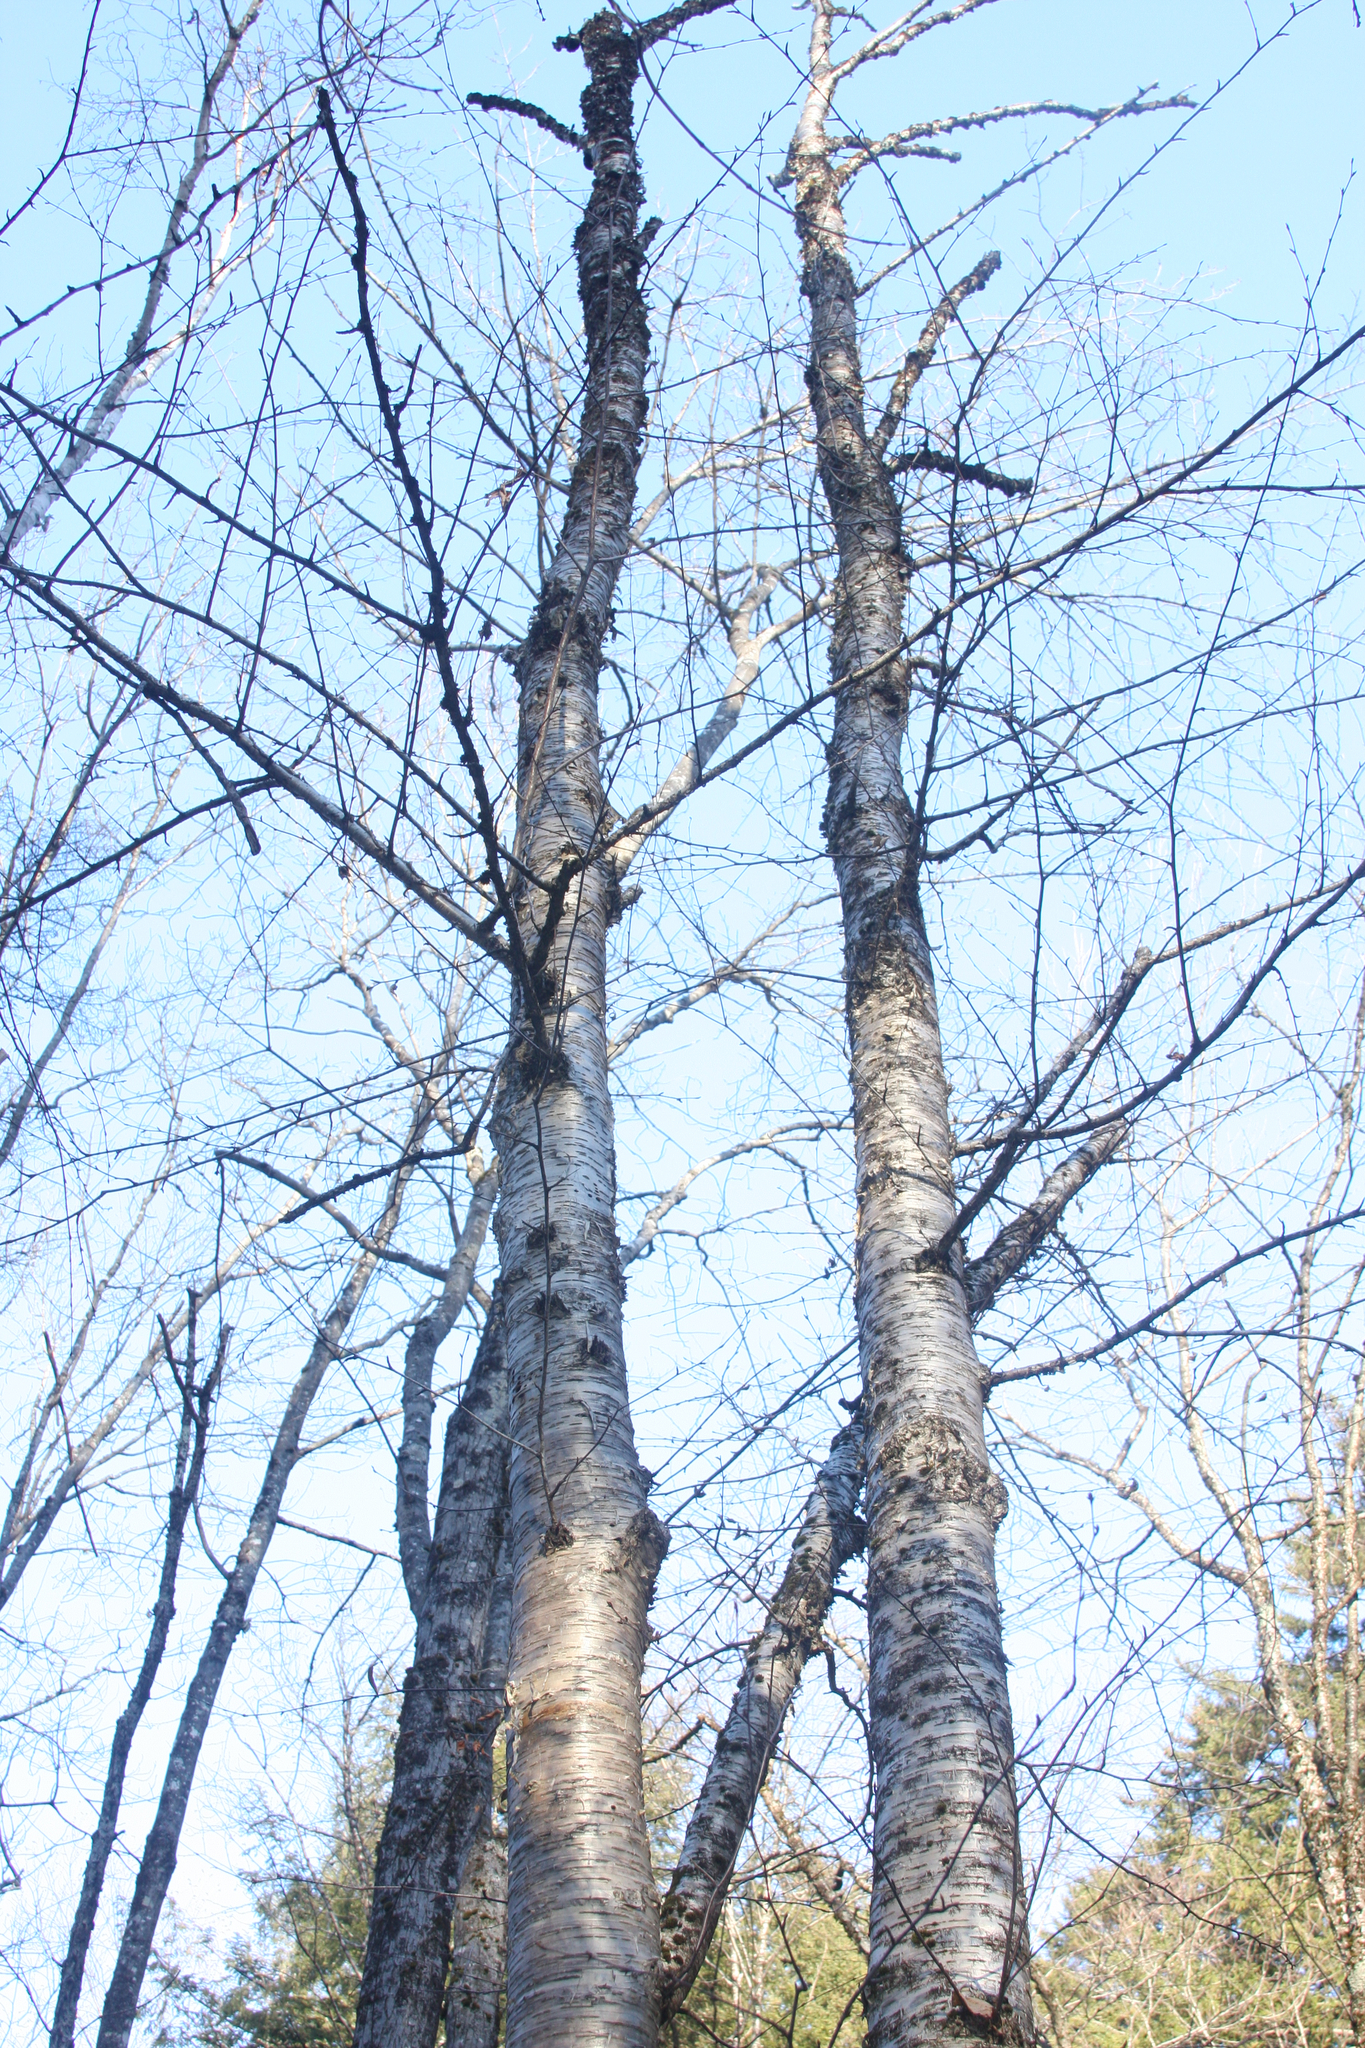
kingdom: Plantae
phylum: Tracheophyta
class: Magnoliopsida
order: Fagales
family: Betulaceae
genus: Betula
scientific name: Betula alleghaniensis
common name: Yellow birch
